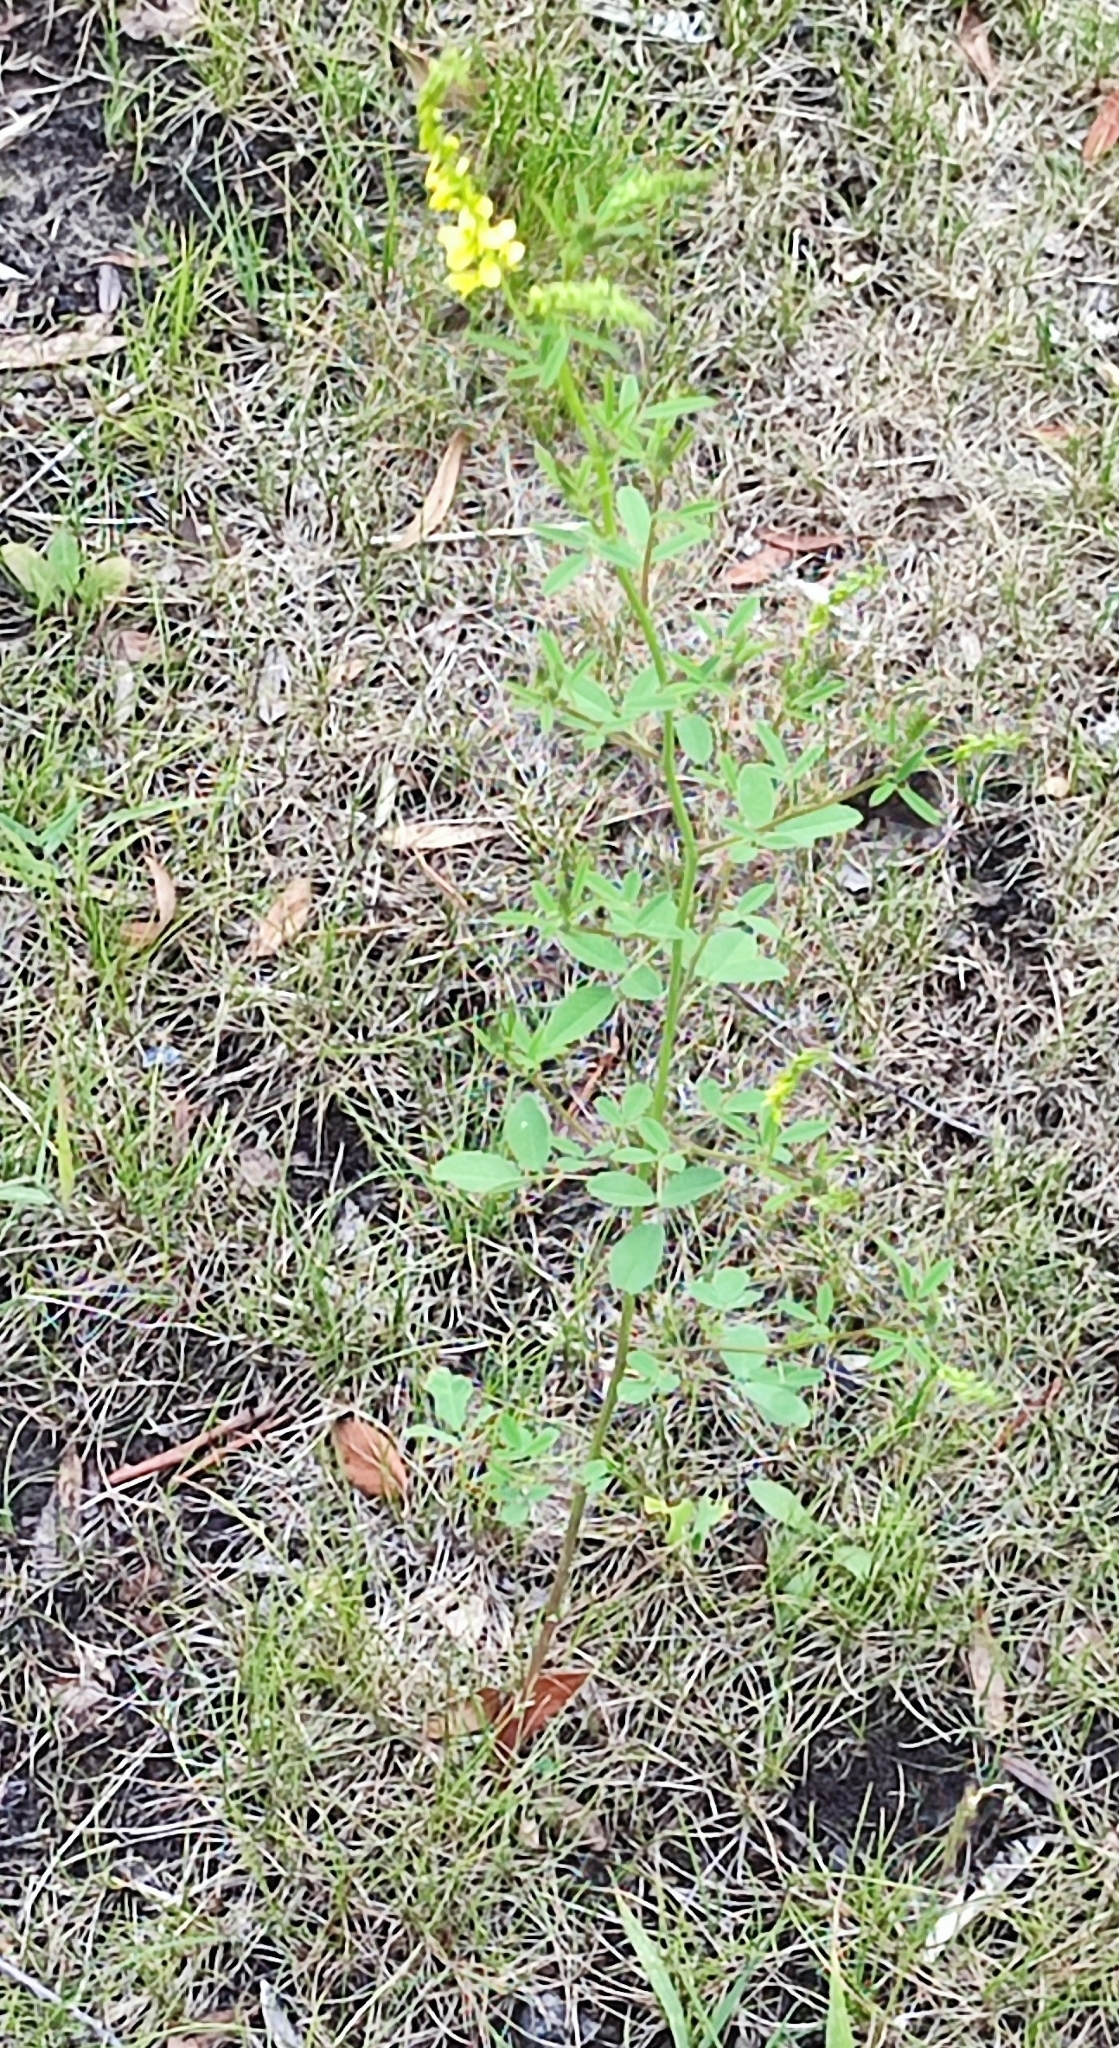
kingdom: Plantae
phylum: Tracheophyta
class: Magnoliopsida
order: Fabales
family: Fabaceae
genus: Melilotus
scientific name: Melilotus officinalis
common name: Sweetclover
